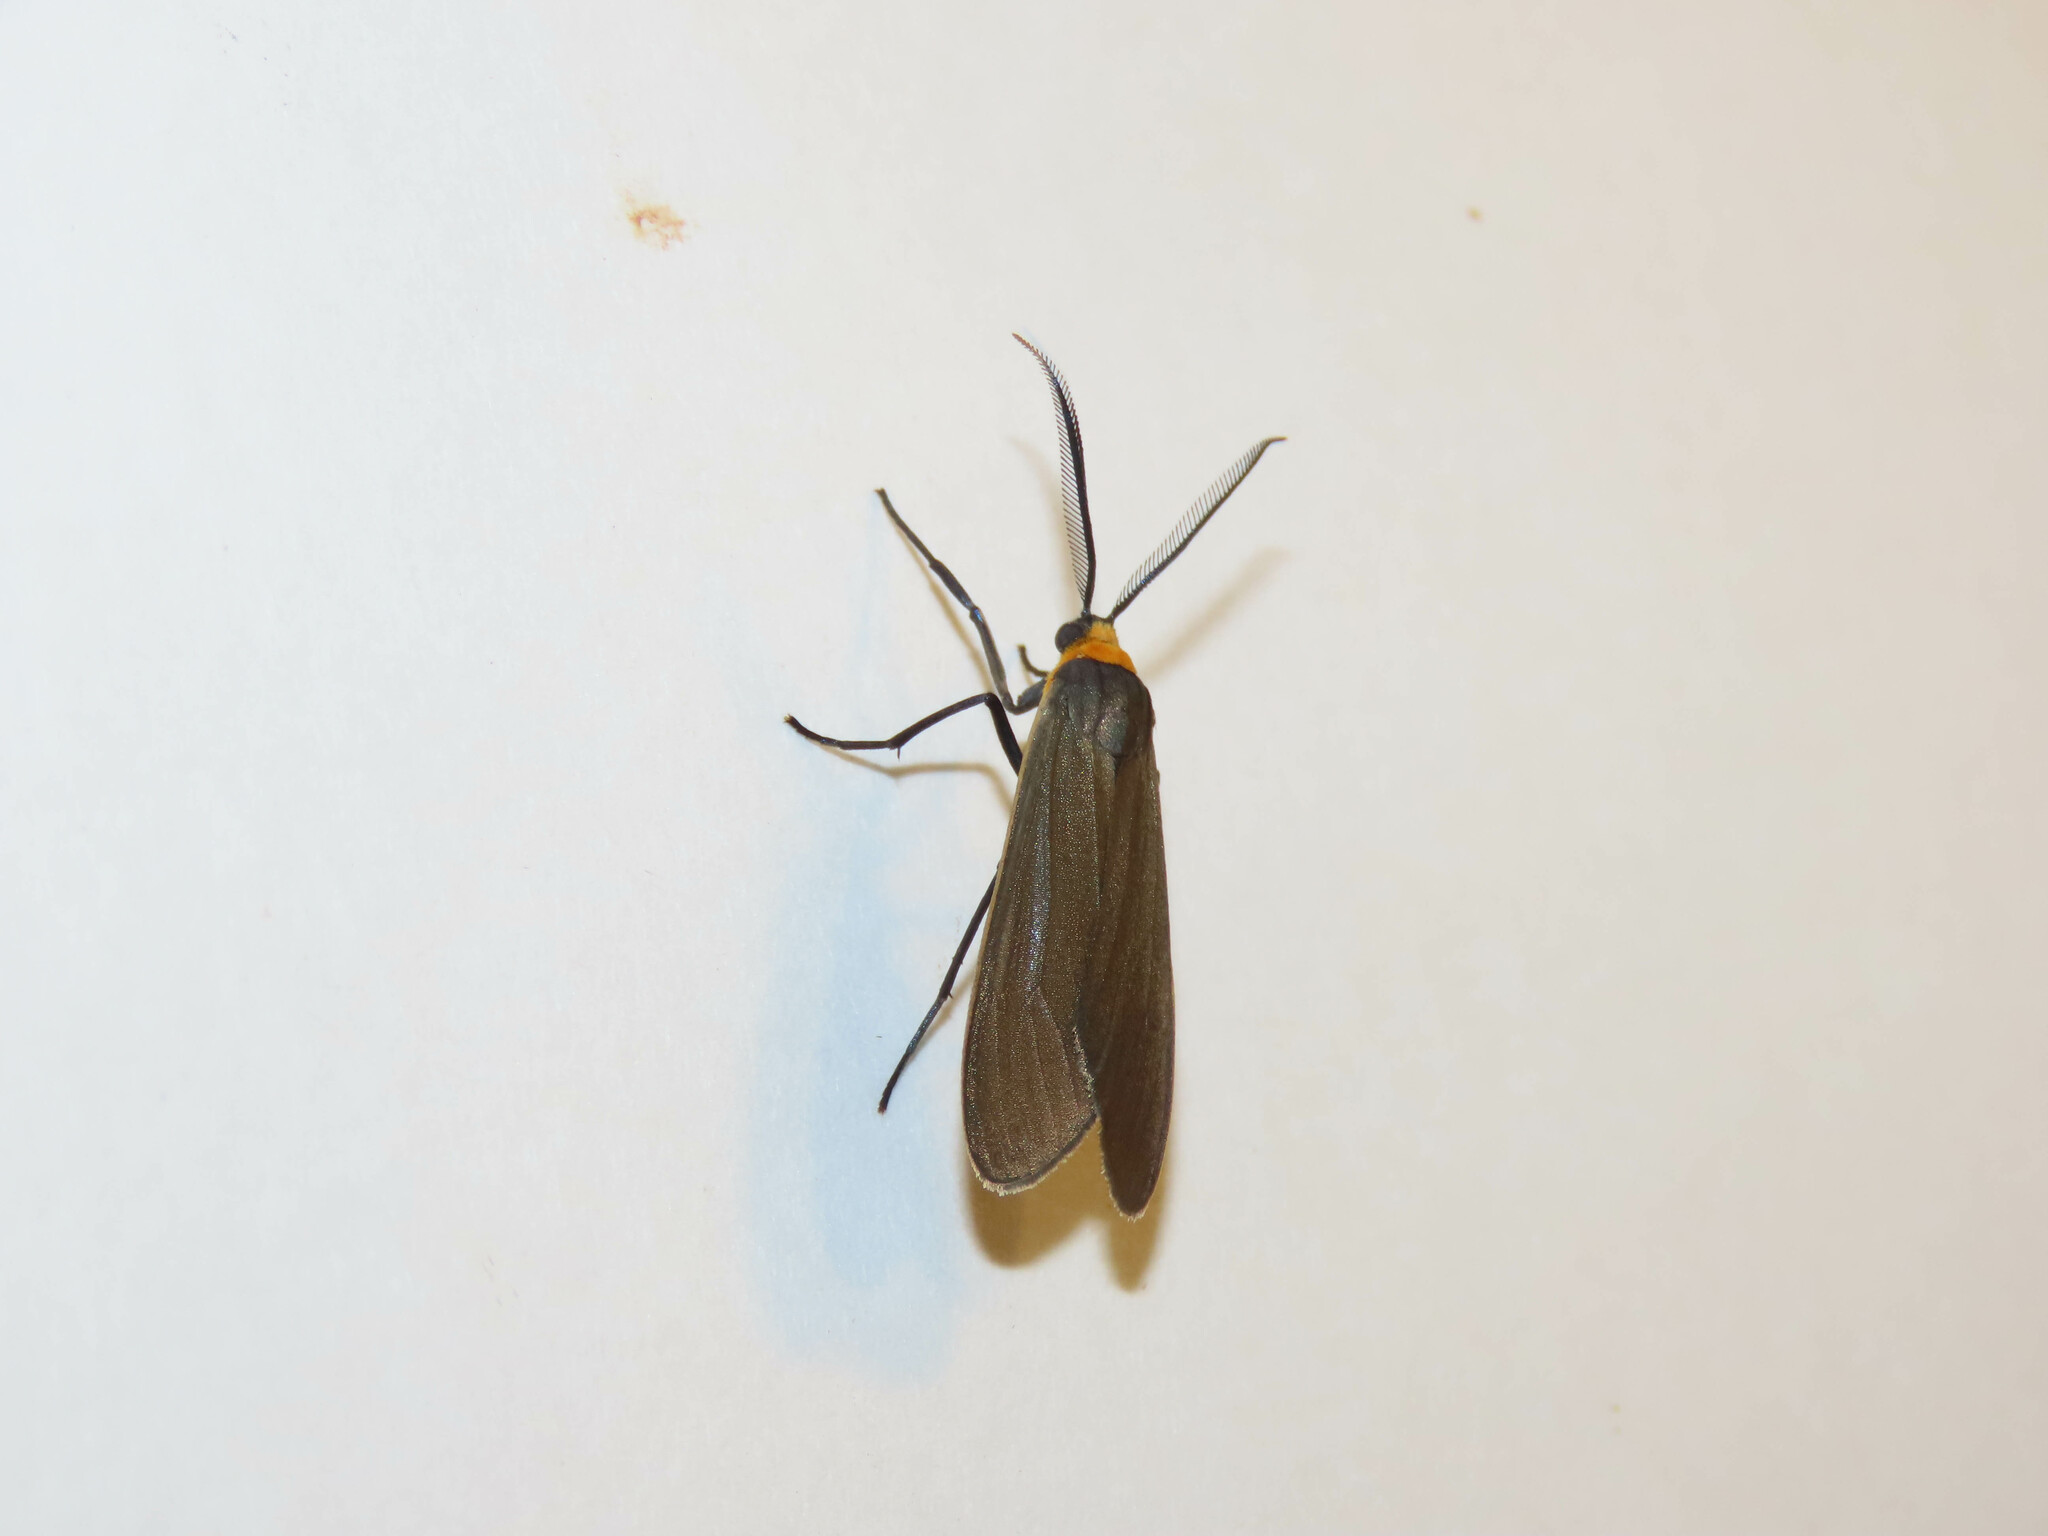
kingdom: Animalia
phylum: Arthropoda
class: Insecta
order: Lepidoptera
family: Erebidae
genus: Cisseps
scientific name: Cisseps fulvicollis
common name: Yellow-collared scape moth
